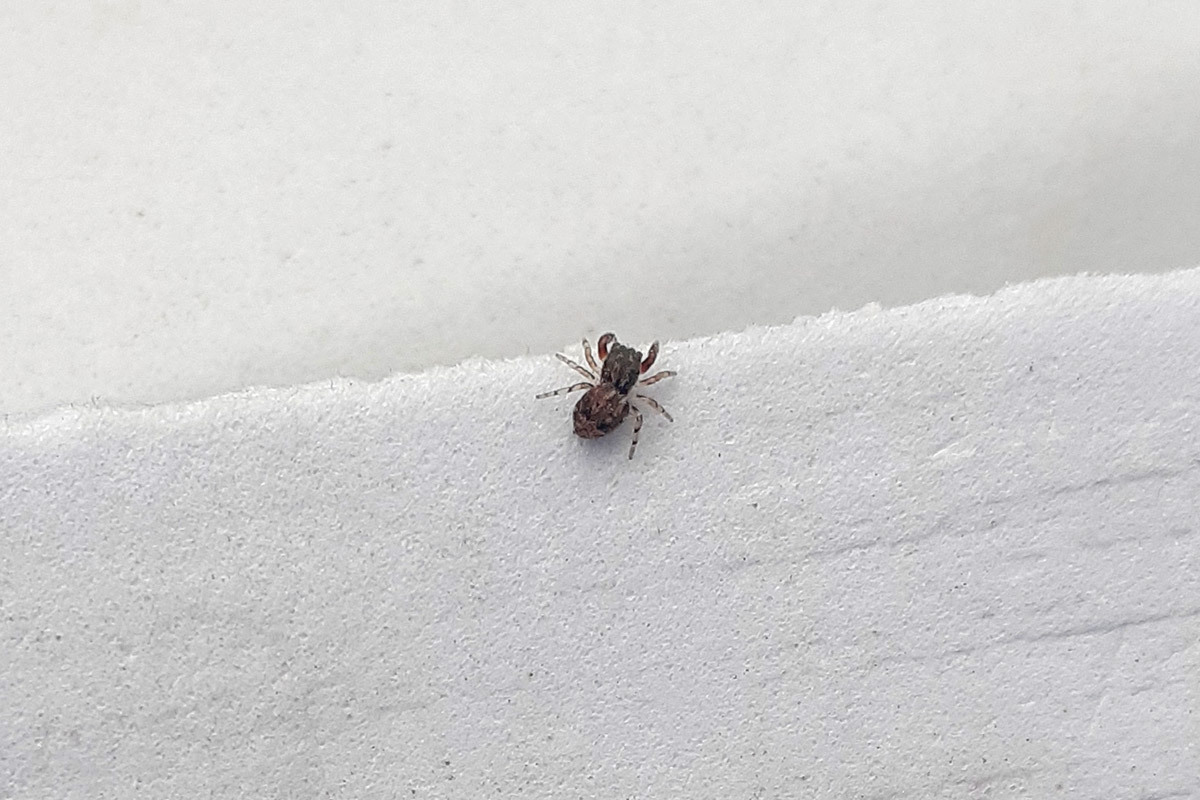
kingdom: Animalia
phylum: Arthropoda
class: Arachnida
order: Araneae
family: Salticidae
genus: Ballus
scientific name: Ballus chalybeius
